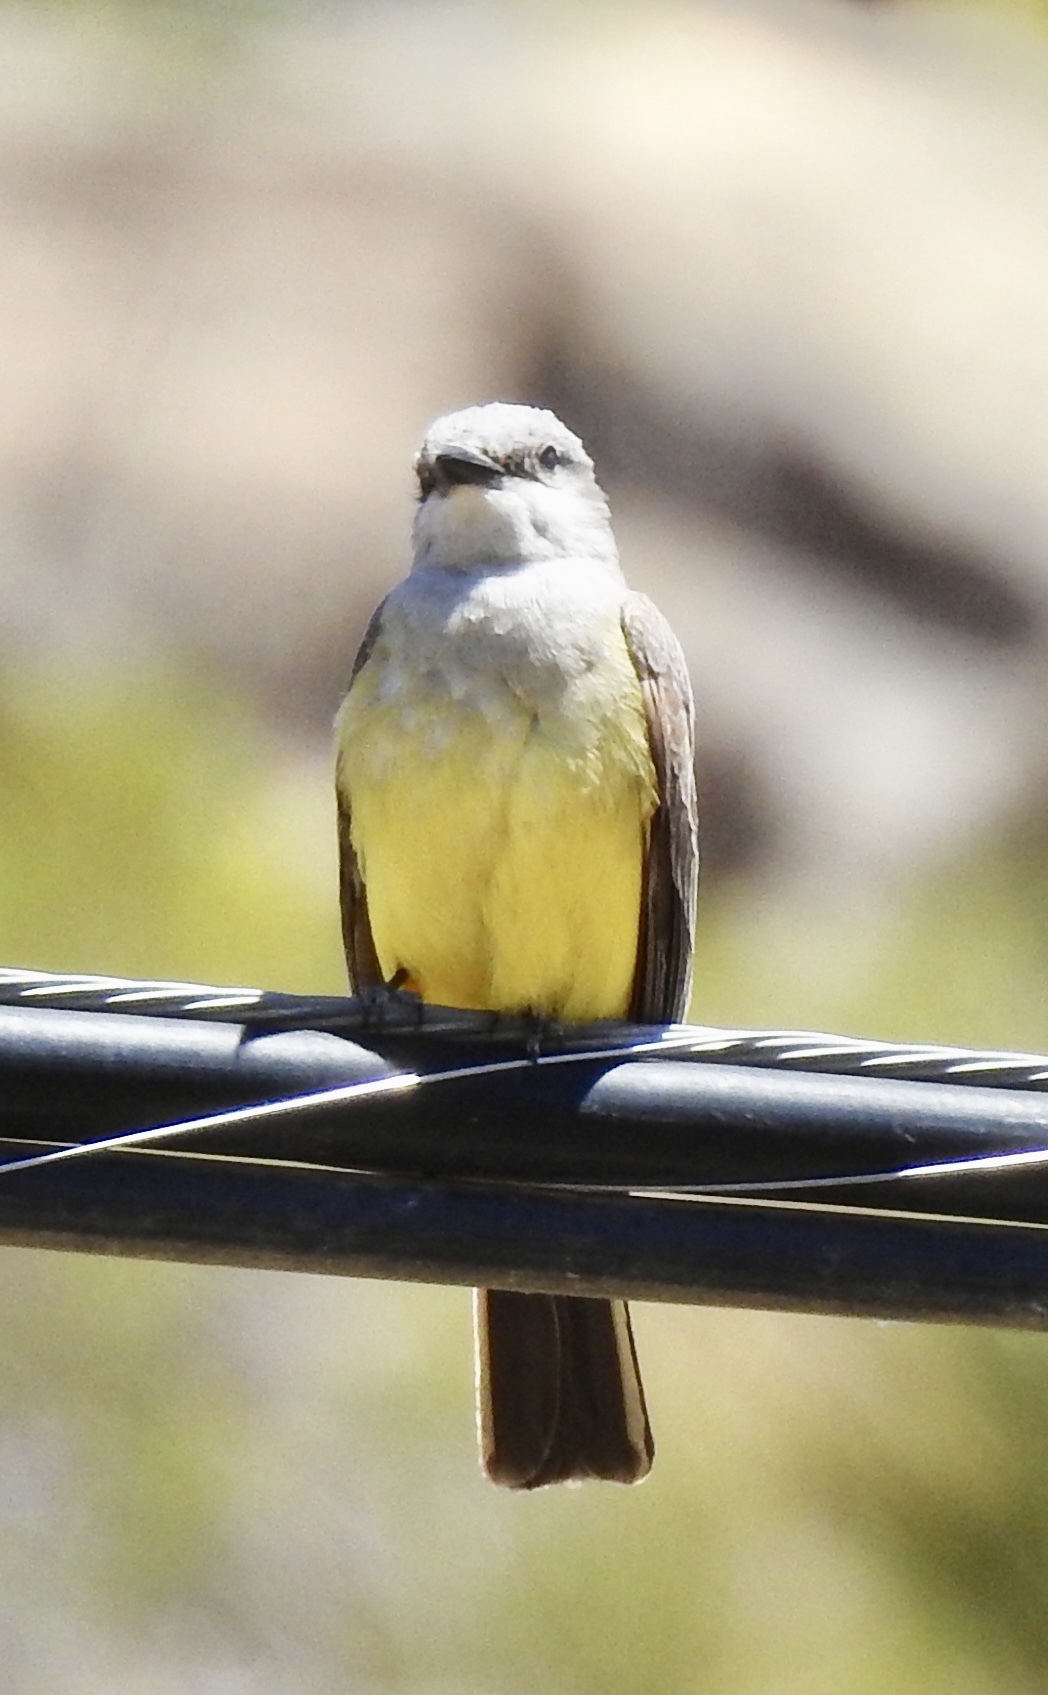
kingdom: Animalia
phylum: Chordata
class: Aves
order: Passeriformes
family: Tyrannidae
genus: Tyrannus
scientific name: Tyrannus verticalis
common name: Western kingbird
